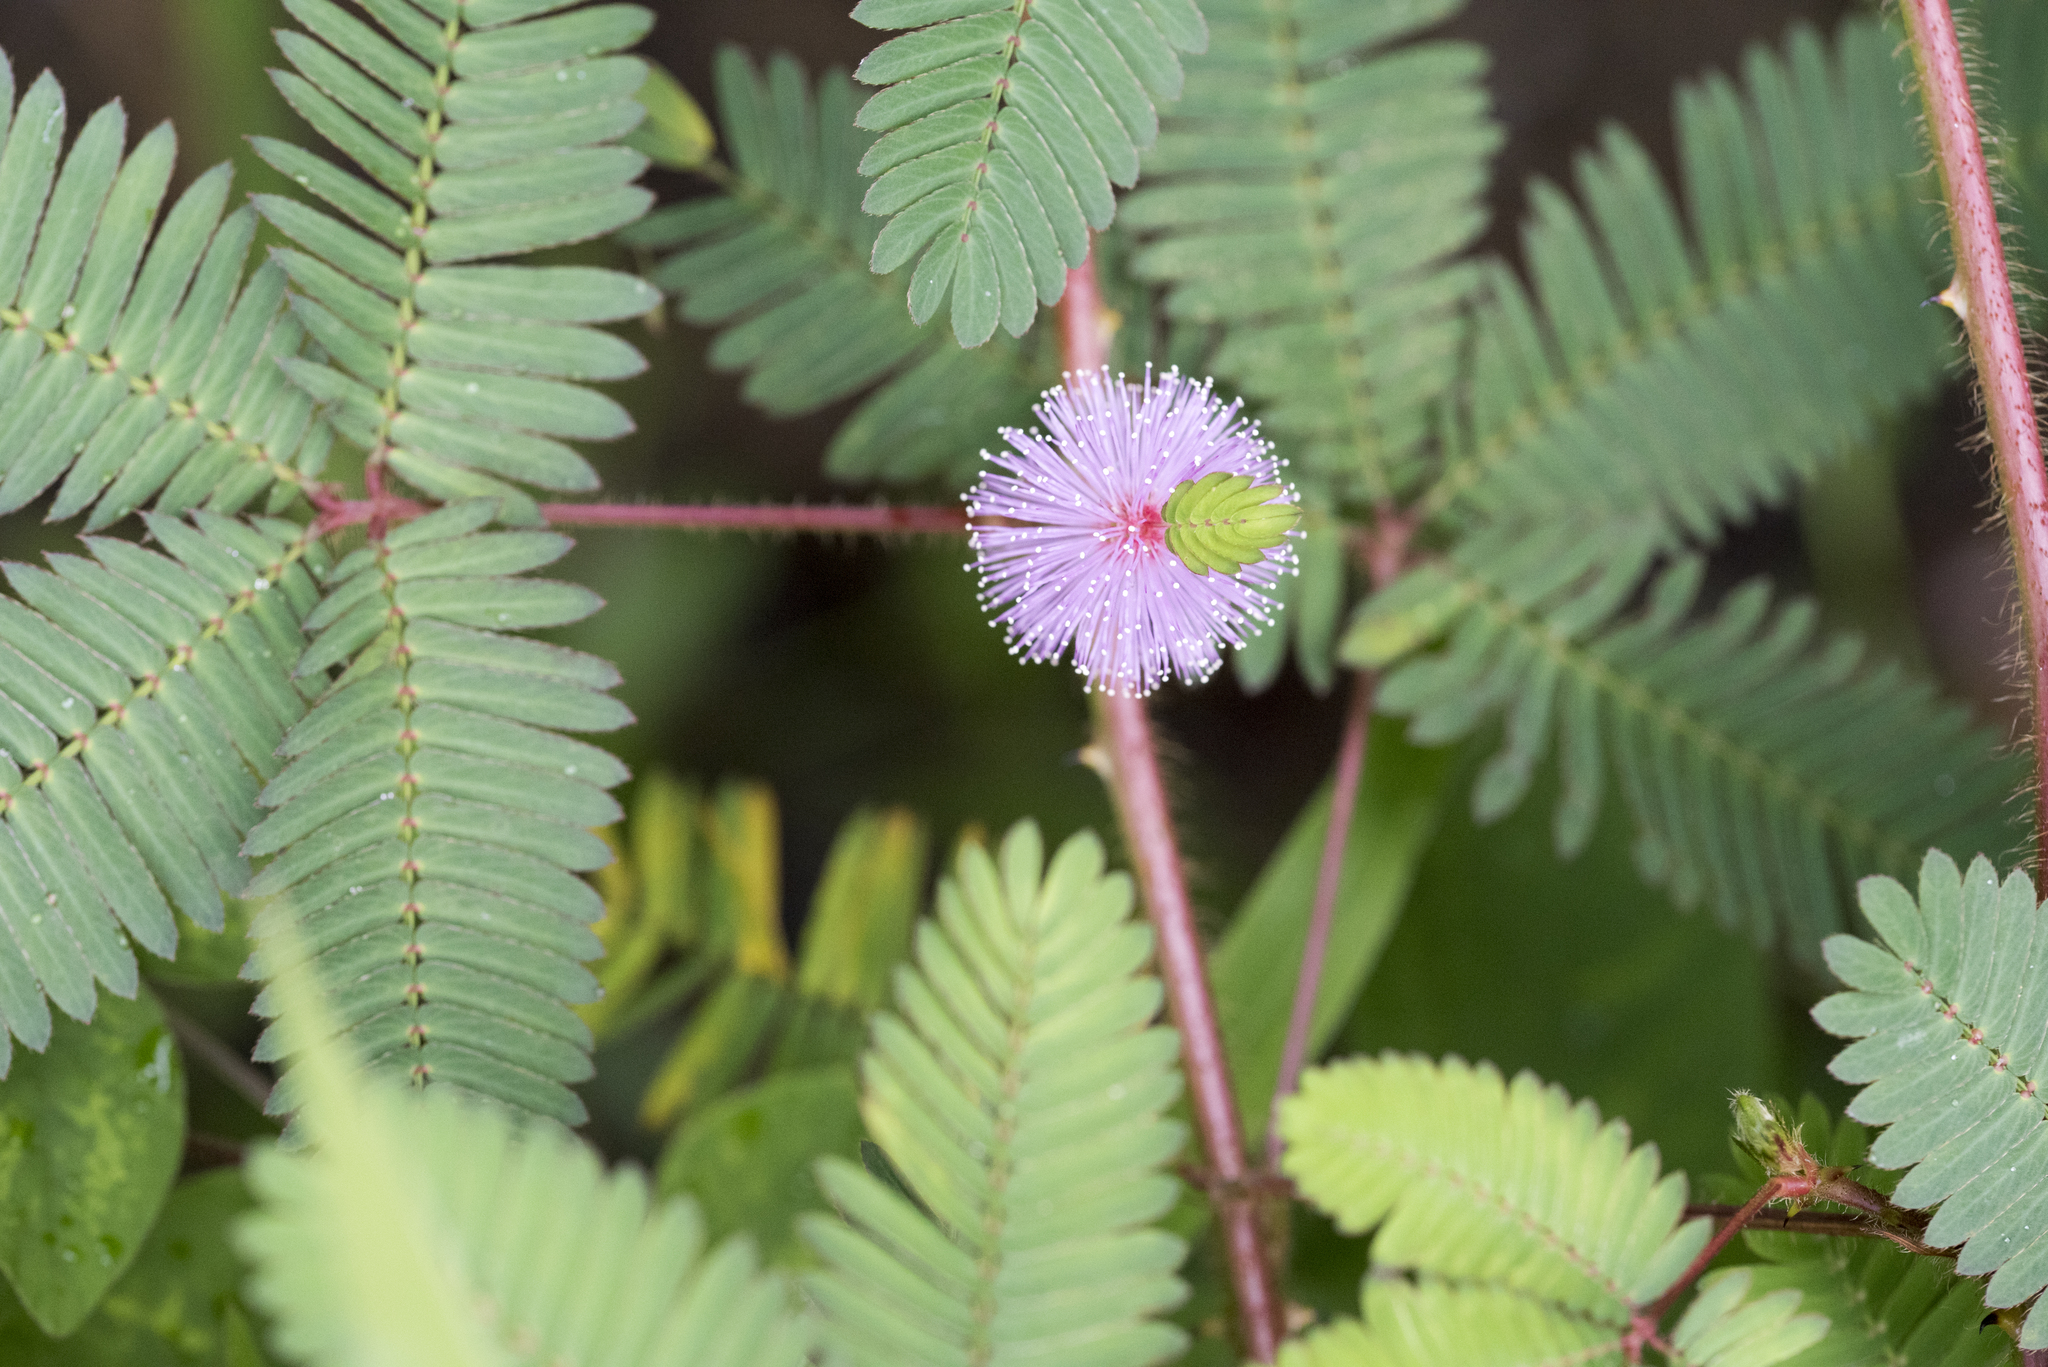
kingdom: Plantae
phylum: Tracheophyta
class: Magnoliopsida
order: Fabales
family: Fabaceae
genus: Mimosa
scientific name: Mimosa pudica
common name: Sensitive plant
